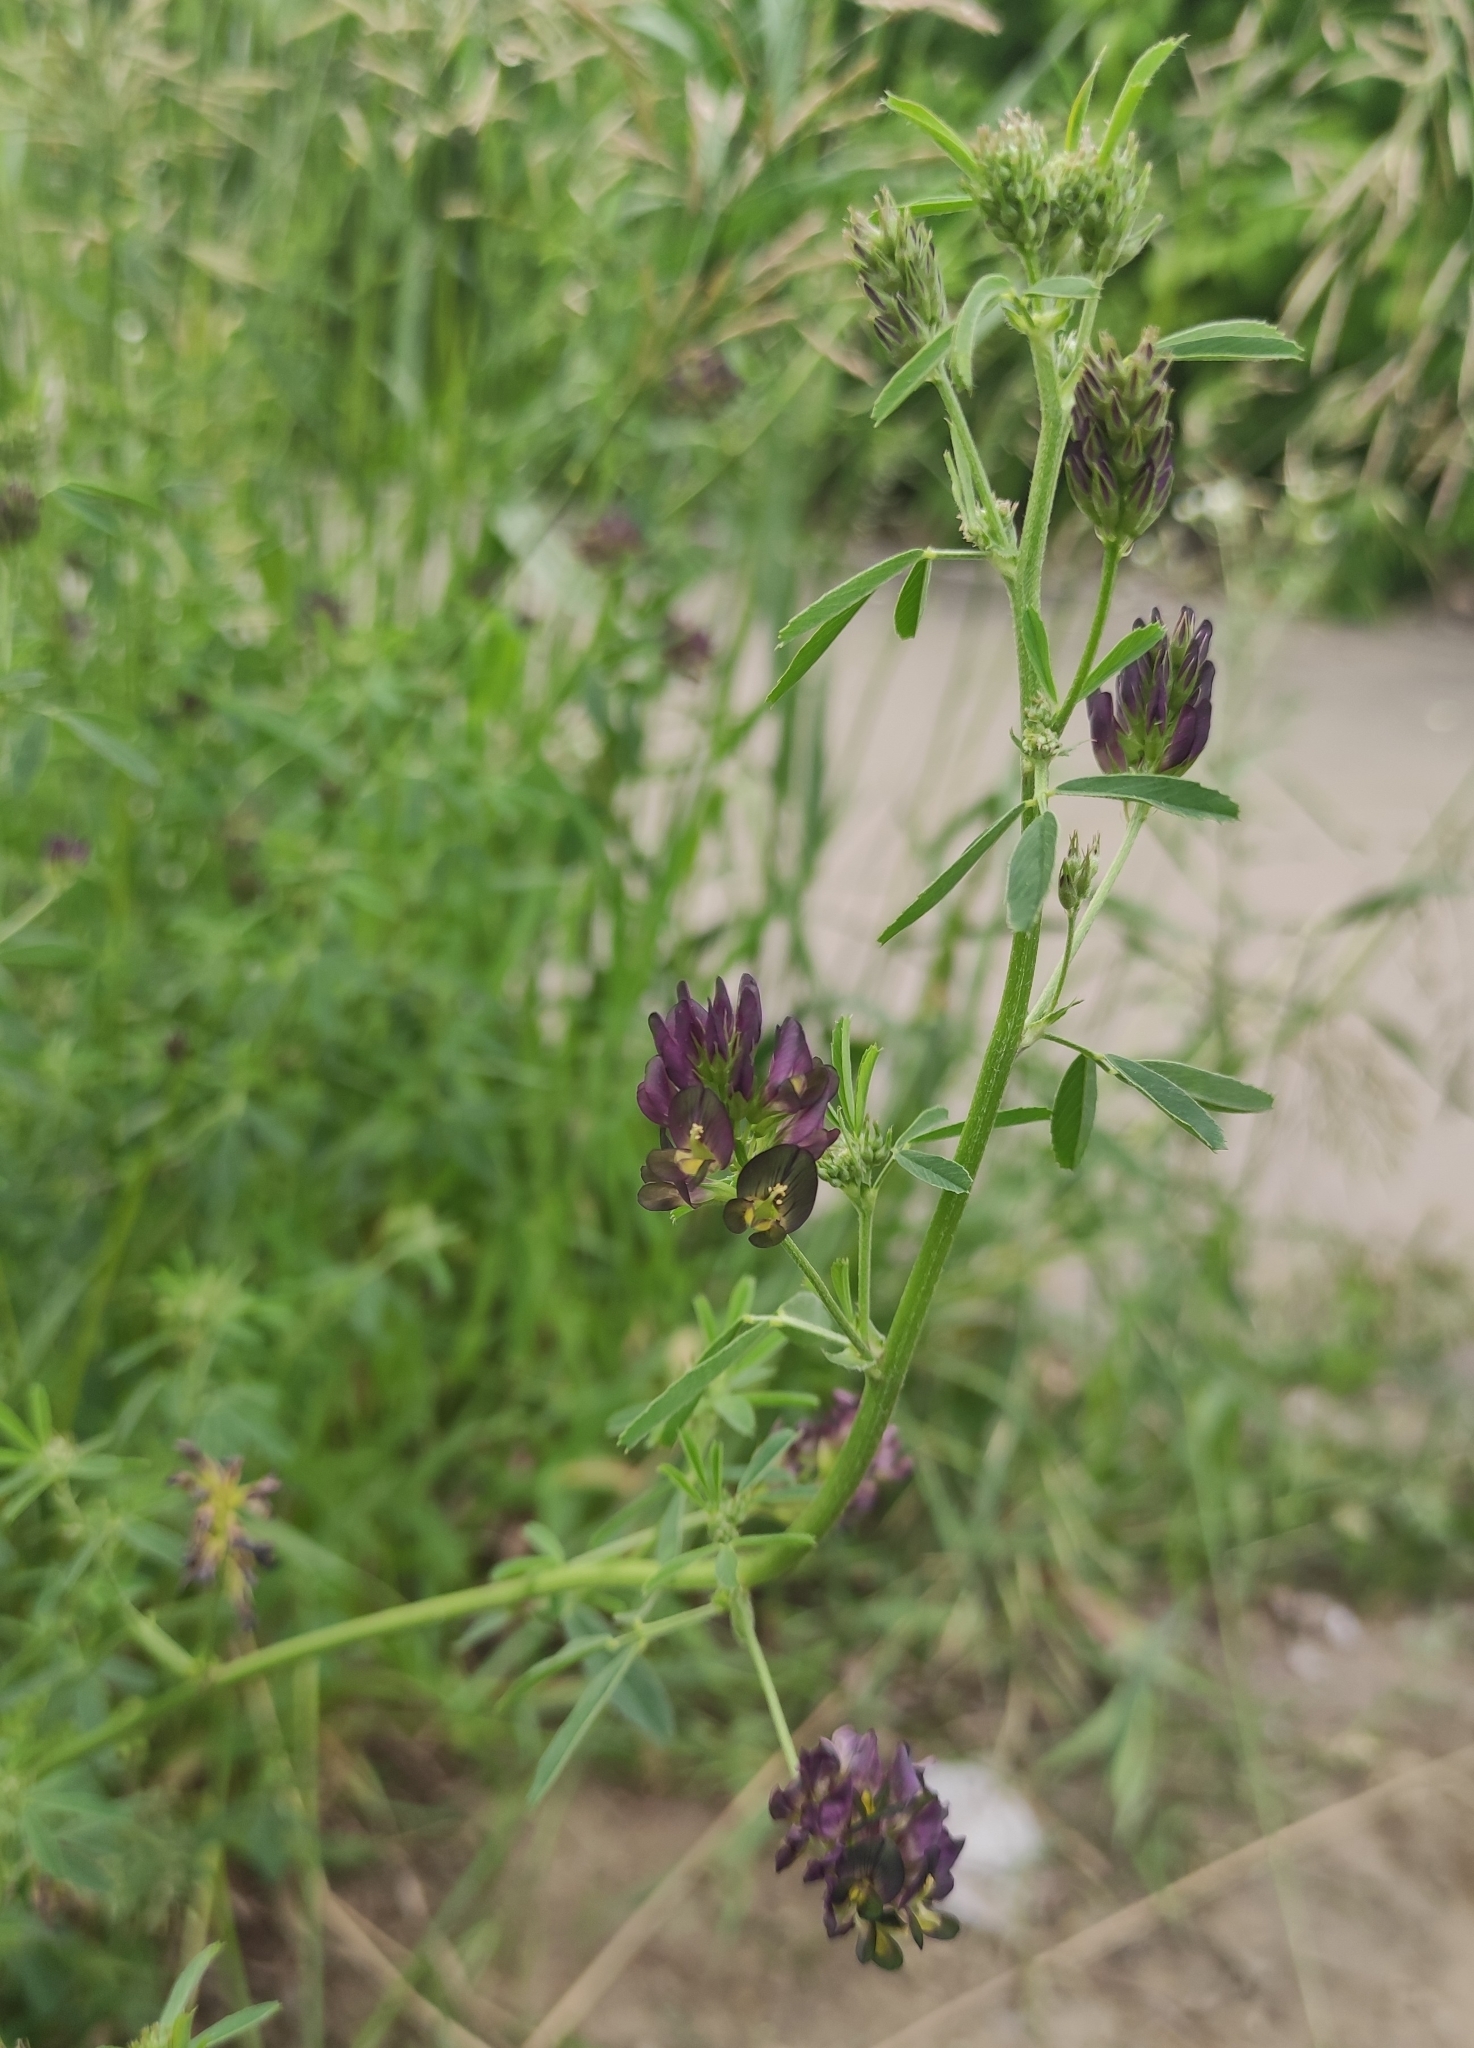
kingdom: Plantae
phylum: Tracheophyta
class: Magnoliopsida
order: Fabales
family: Fabaceae
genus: Medicago
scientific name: Medicago varia
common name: Sand lucerne
